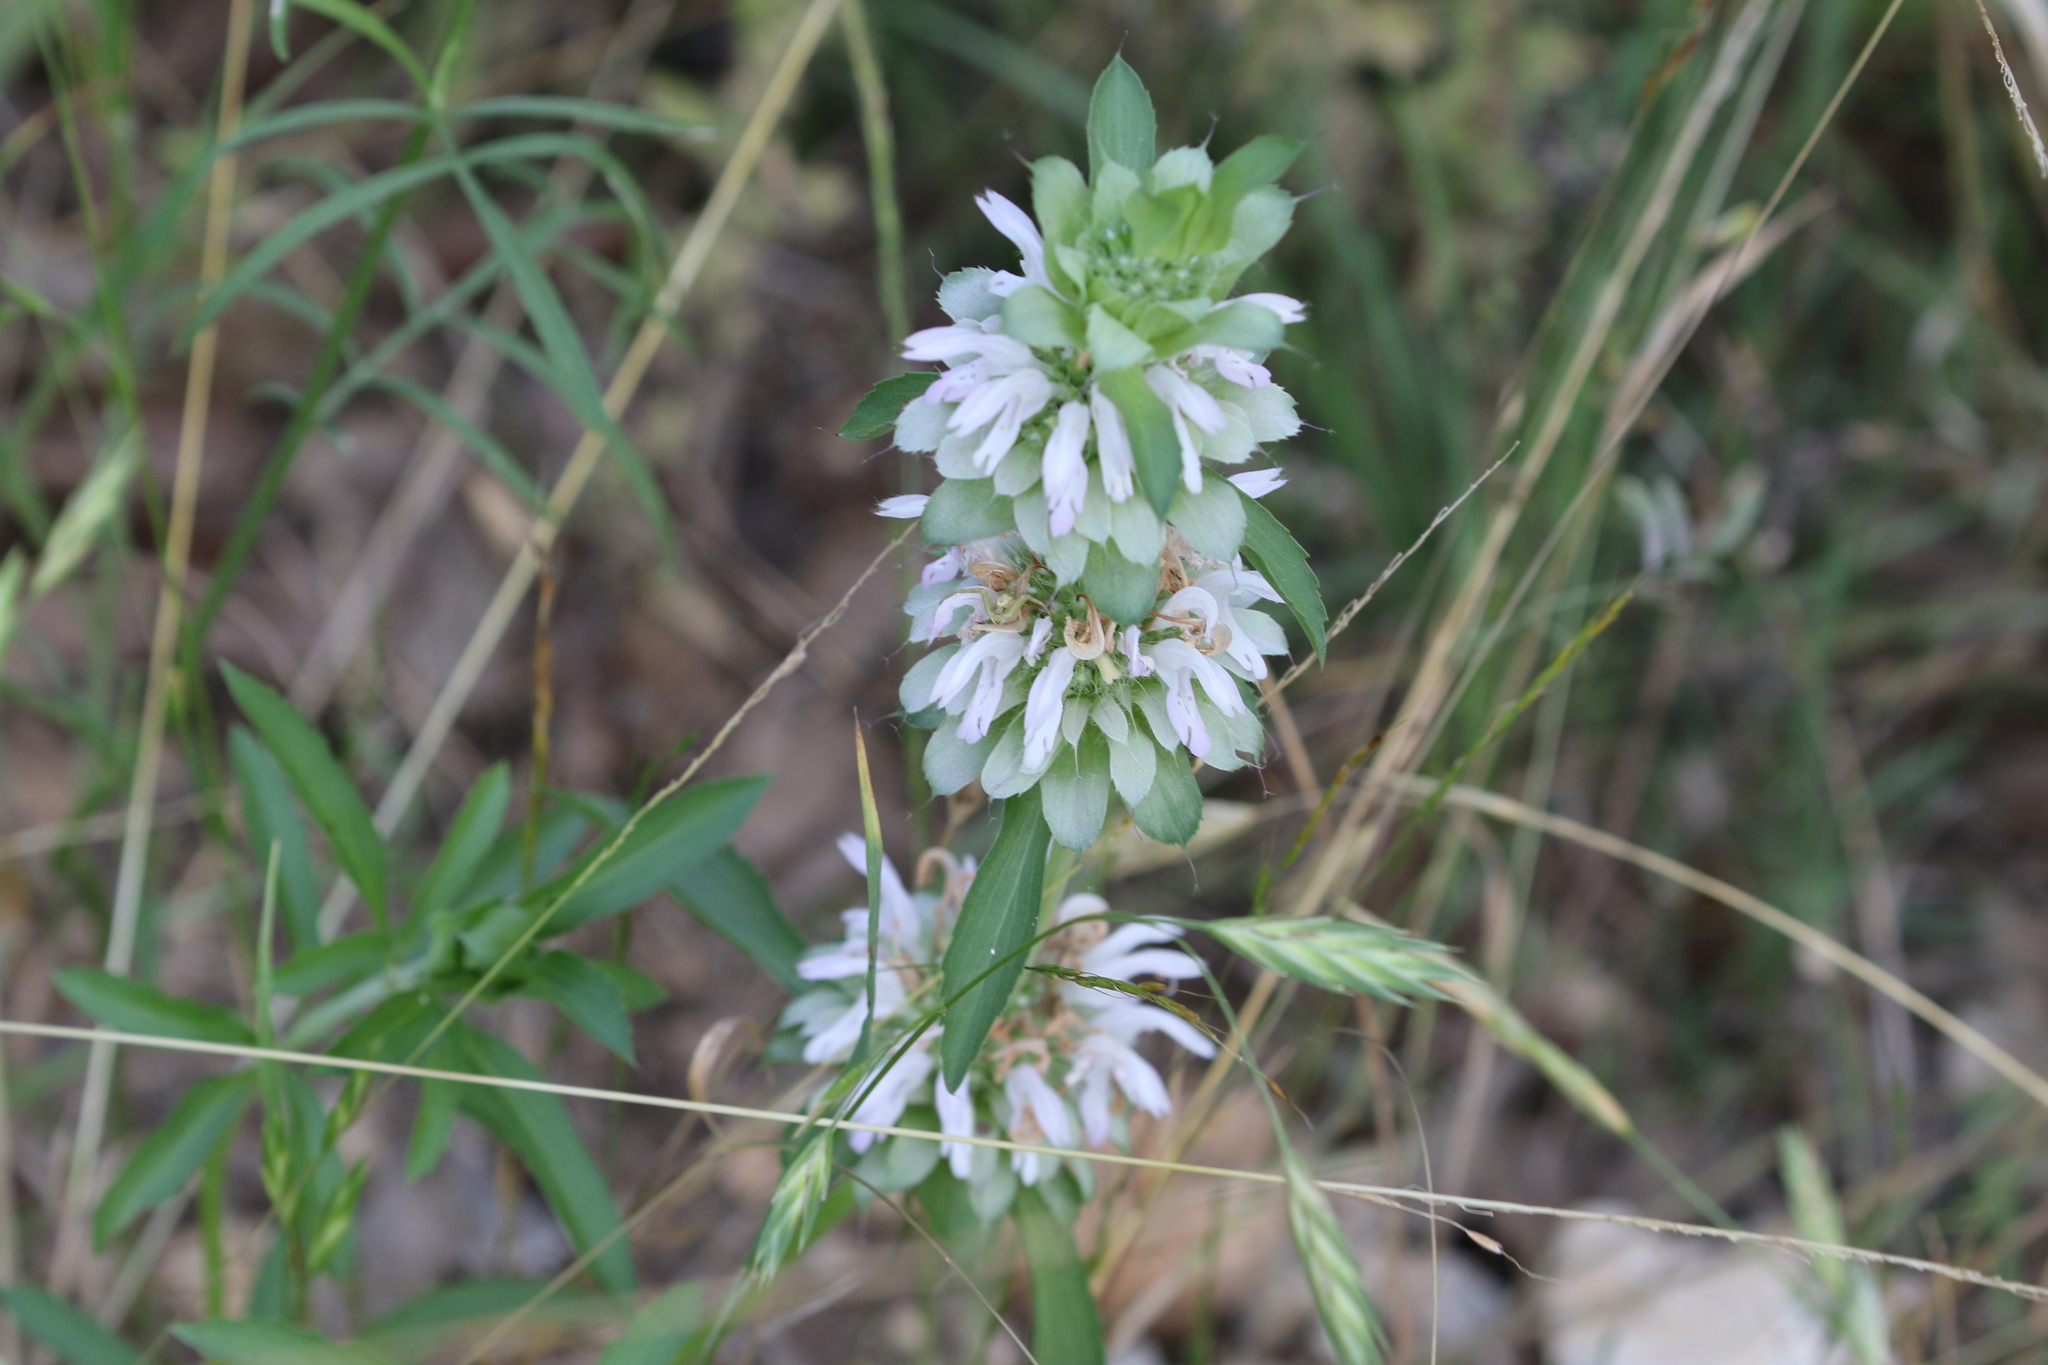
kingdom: Plantae
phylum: Tracheophyta
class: Magnoliopsida
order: Lamiales
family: Lamiaceae
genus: Monarda
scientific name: Monarda citriodora
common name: Lemon beebalm
